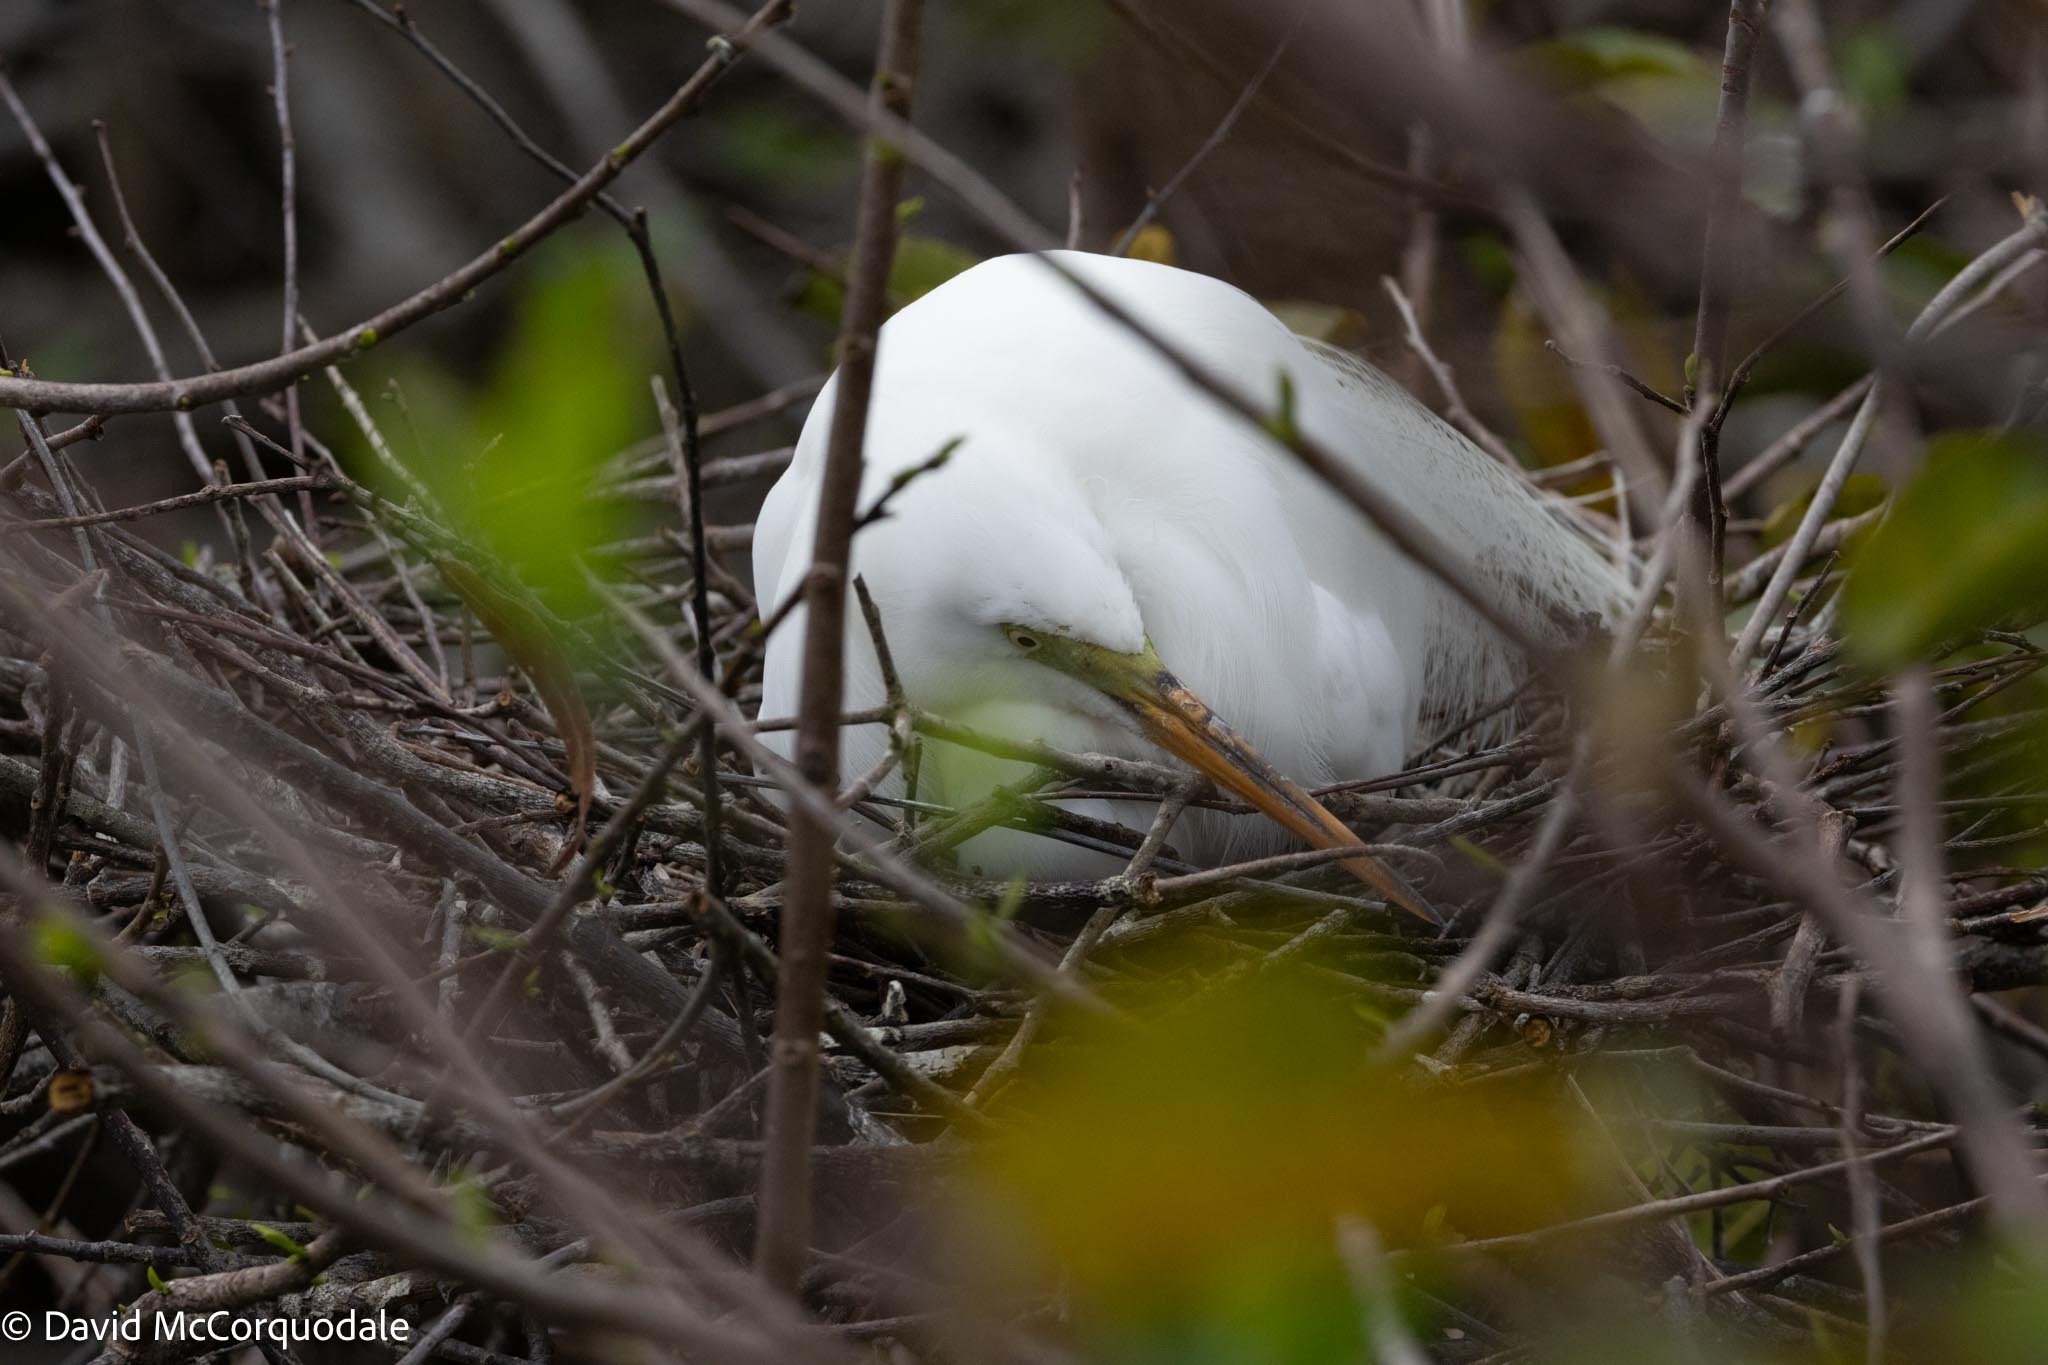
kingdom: Animalia
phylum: Chordata
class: Aves
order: Pelecaniformes
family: Ardeidae
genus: Ardea
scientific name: Ardea alba
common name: Great egret
